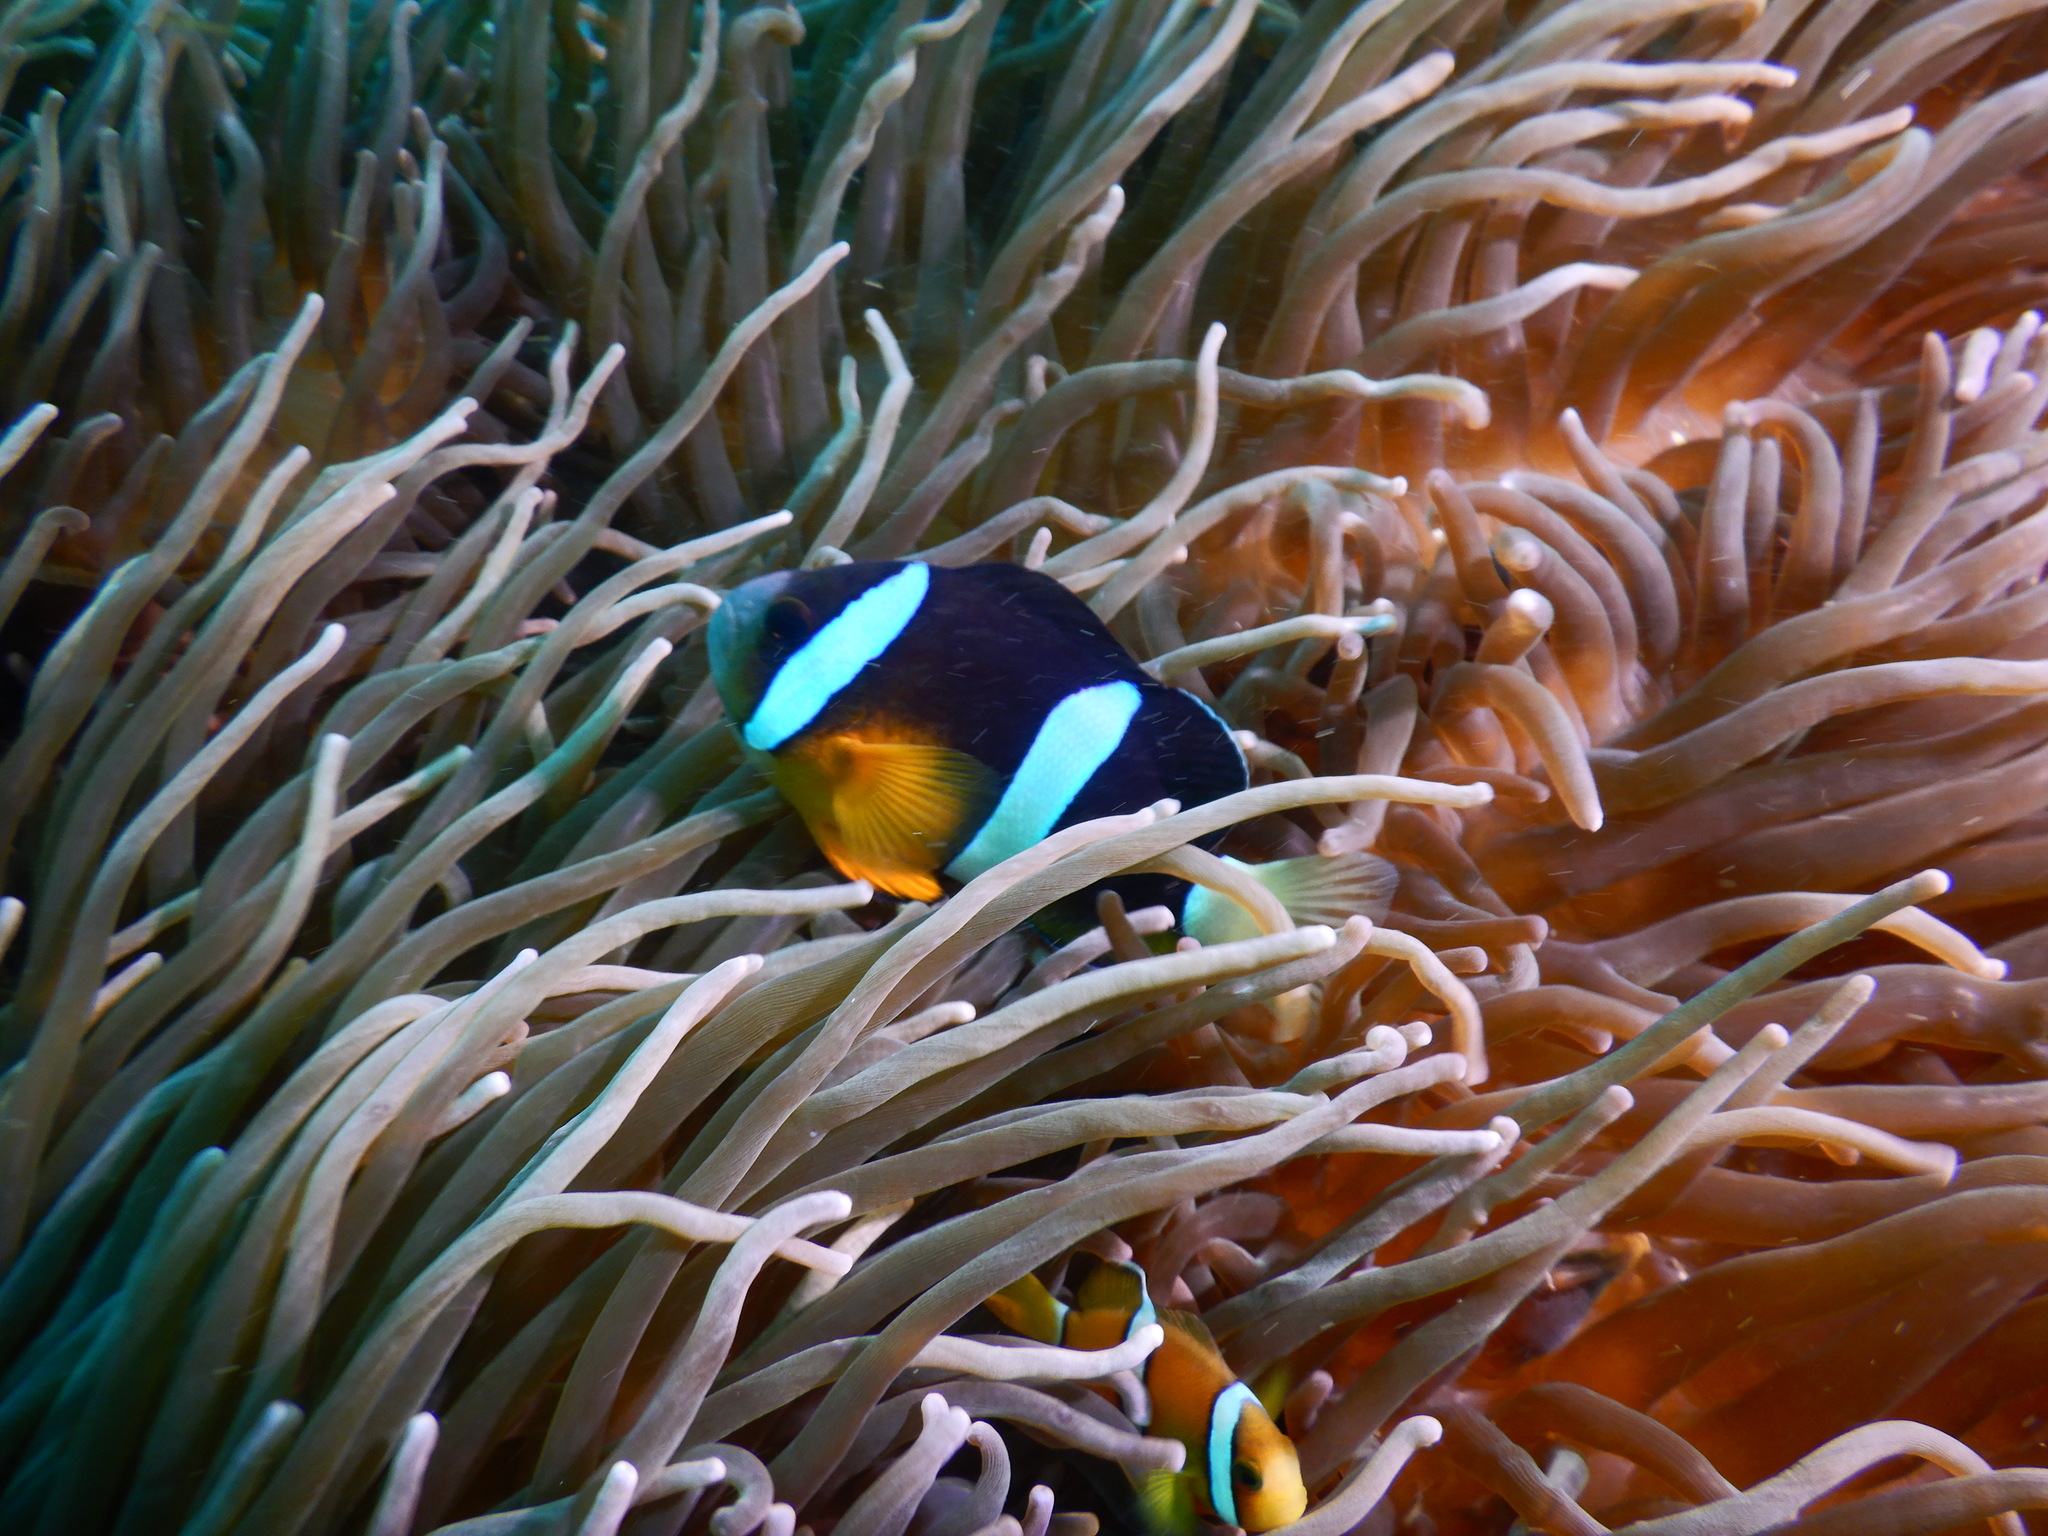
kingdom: Animalia
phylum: Chordata
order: Perciformes
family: Pomacentridae
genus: Amphiprion
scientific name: Amphiprion clarkii
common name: Clark's anemonefish
